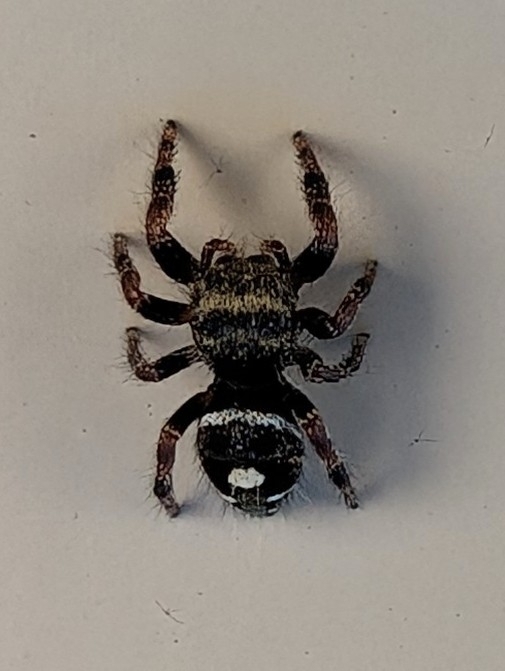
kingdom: Animalia
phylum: Arthropoda
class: Arachnida
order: Araneae
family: Salticidae
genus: Phidippus
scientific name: Phidippus audax
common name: Bold jumper
